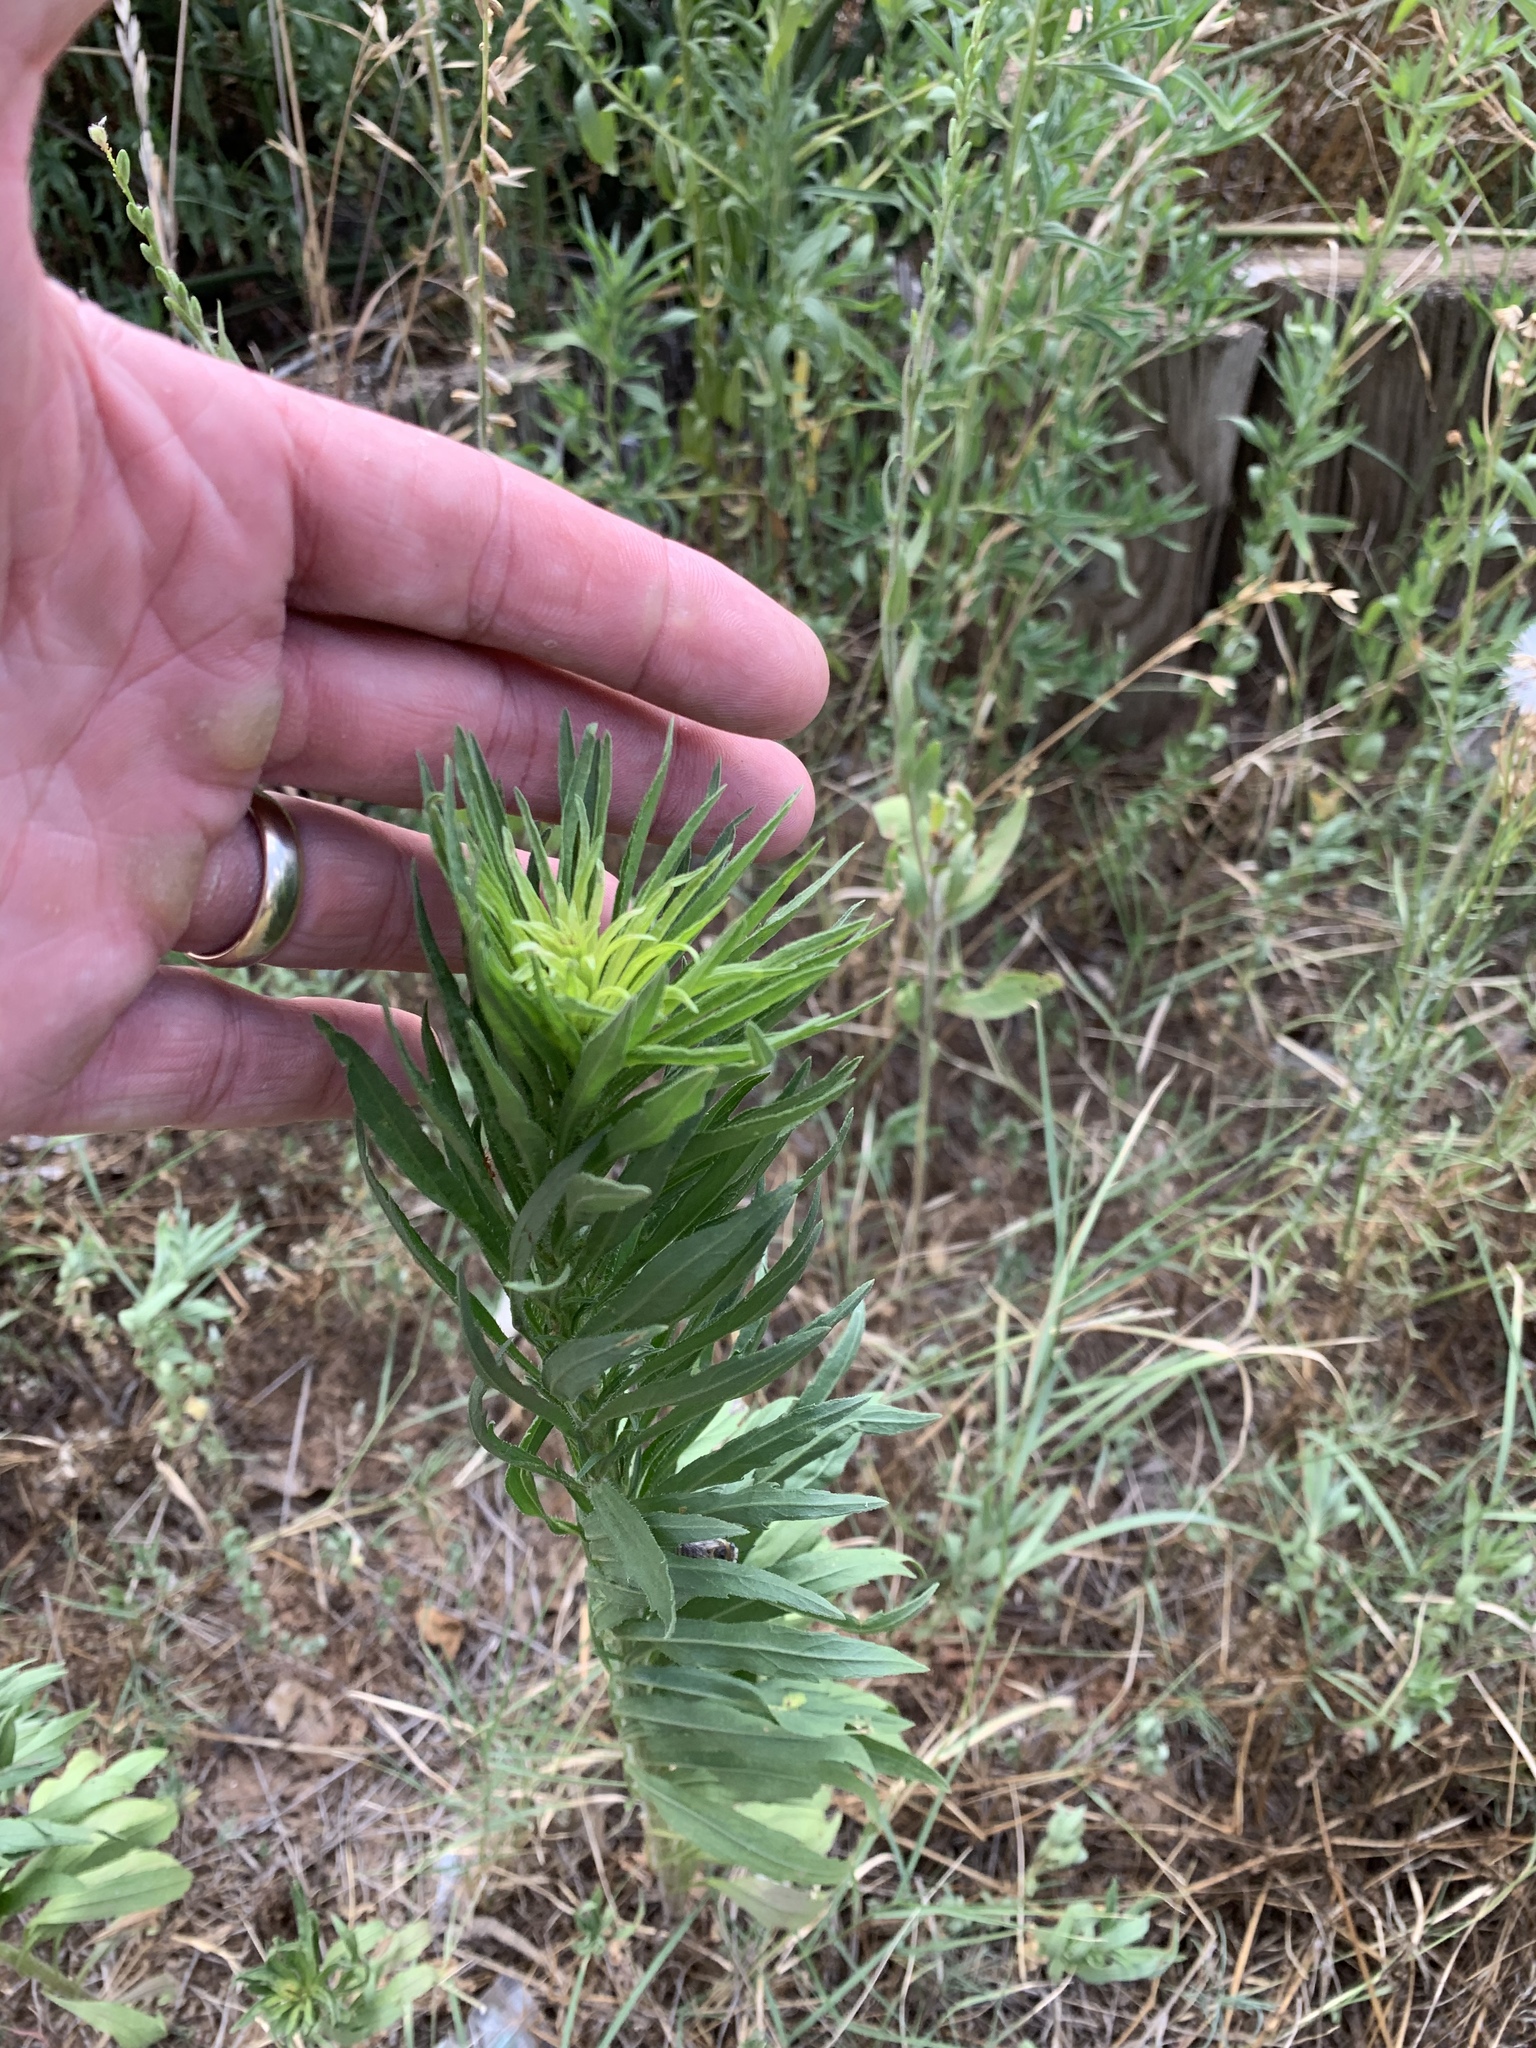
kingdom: Plantae
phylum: Tracheophyta
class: Magnoliopsida
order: Asterales
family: Asteraceae
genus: Erigeron
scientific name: Erigeron canadensis
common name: Canadian fleabane
